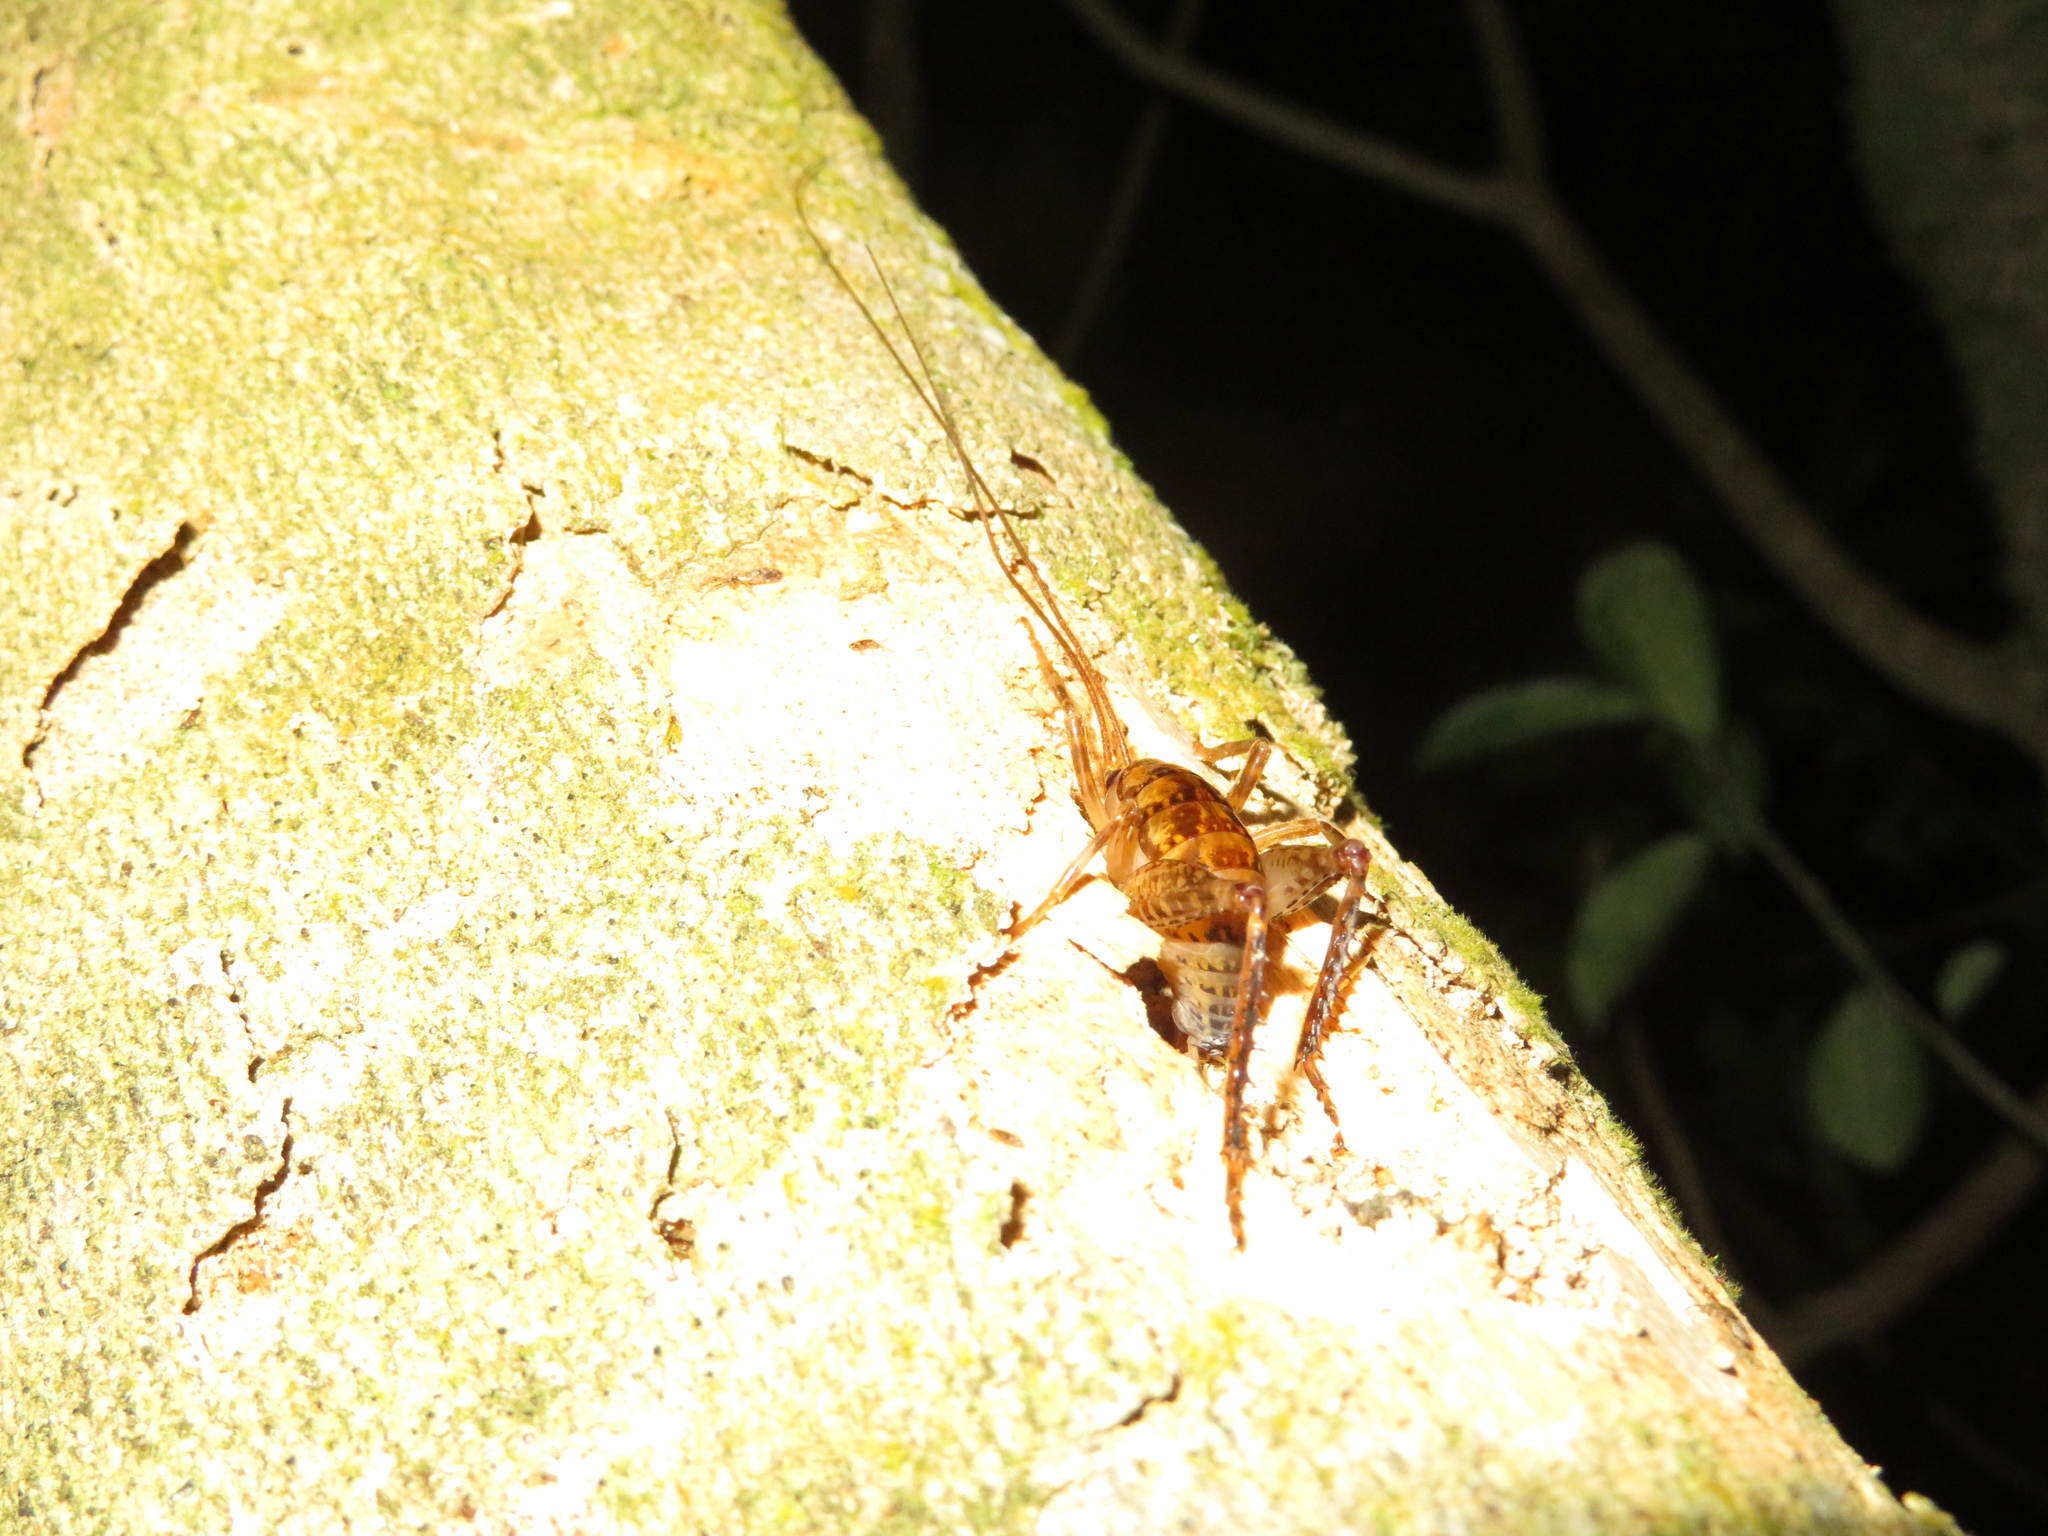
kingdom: Animalia
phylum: Arthropoda
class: Insecta
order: Orthoptera
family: Rhaphidophoridae
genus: Talitropsis
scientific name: Talitropsis sedilloti
